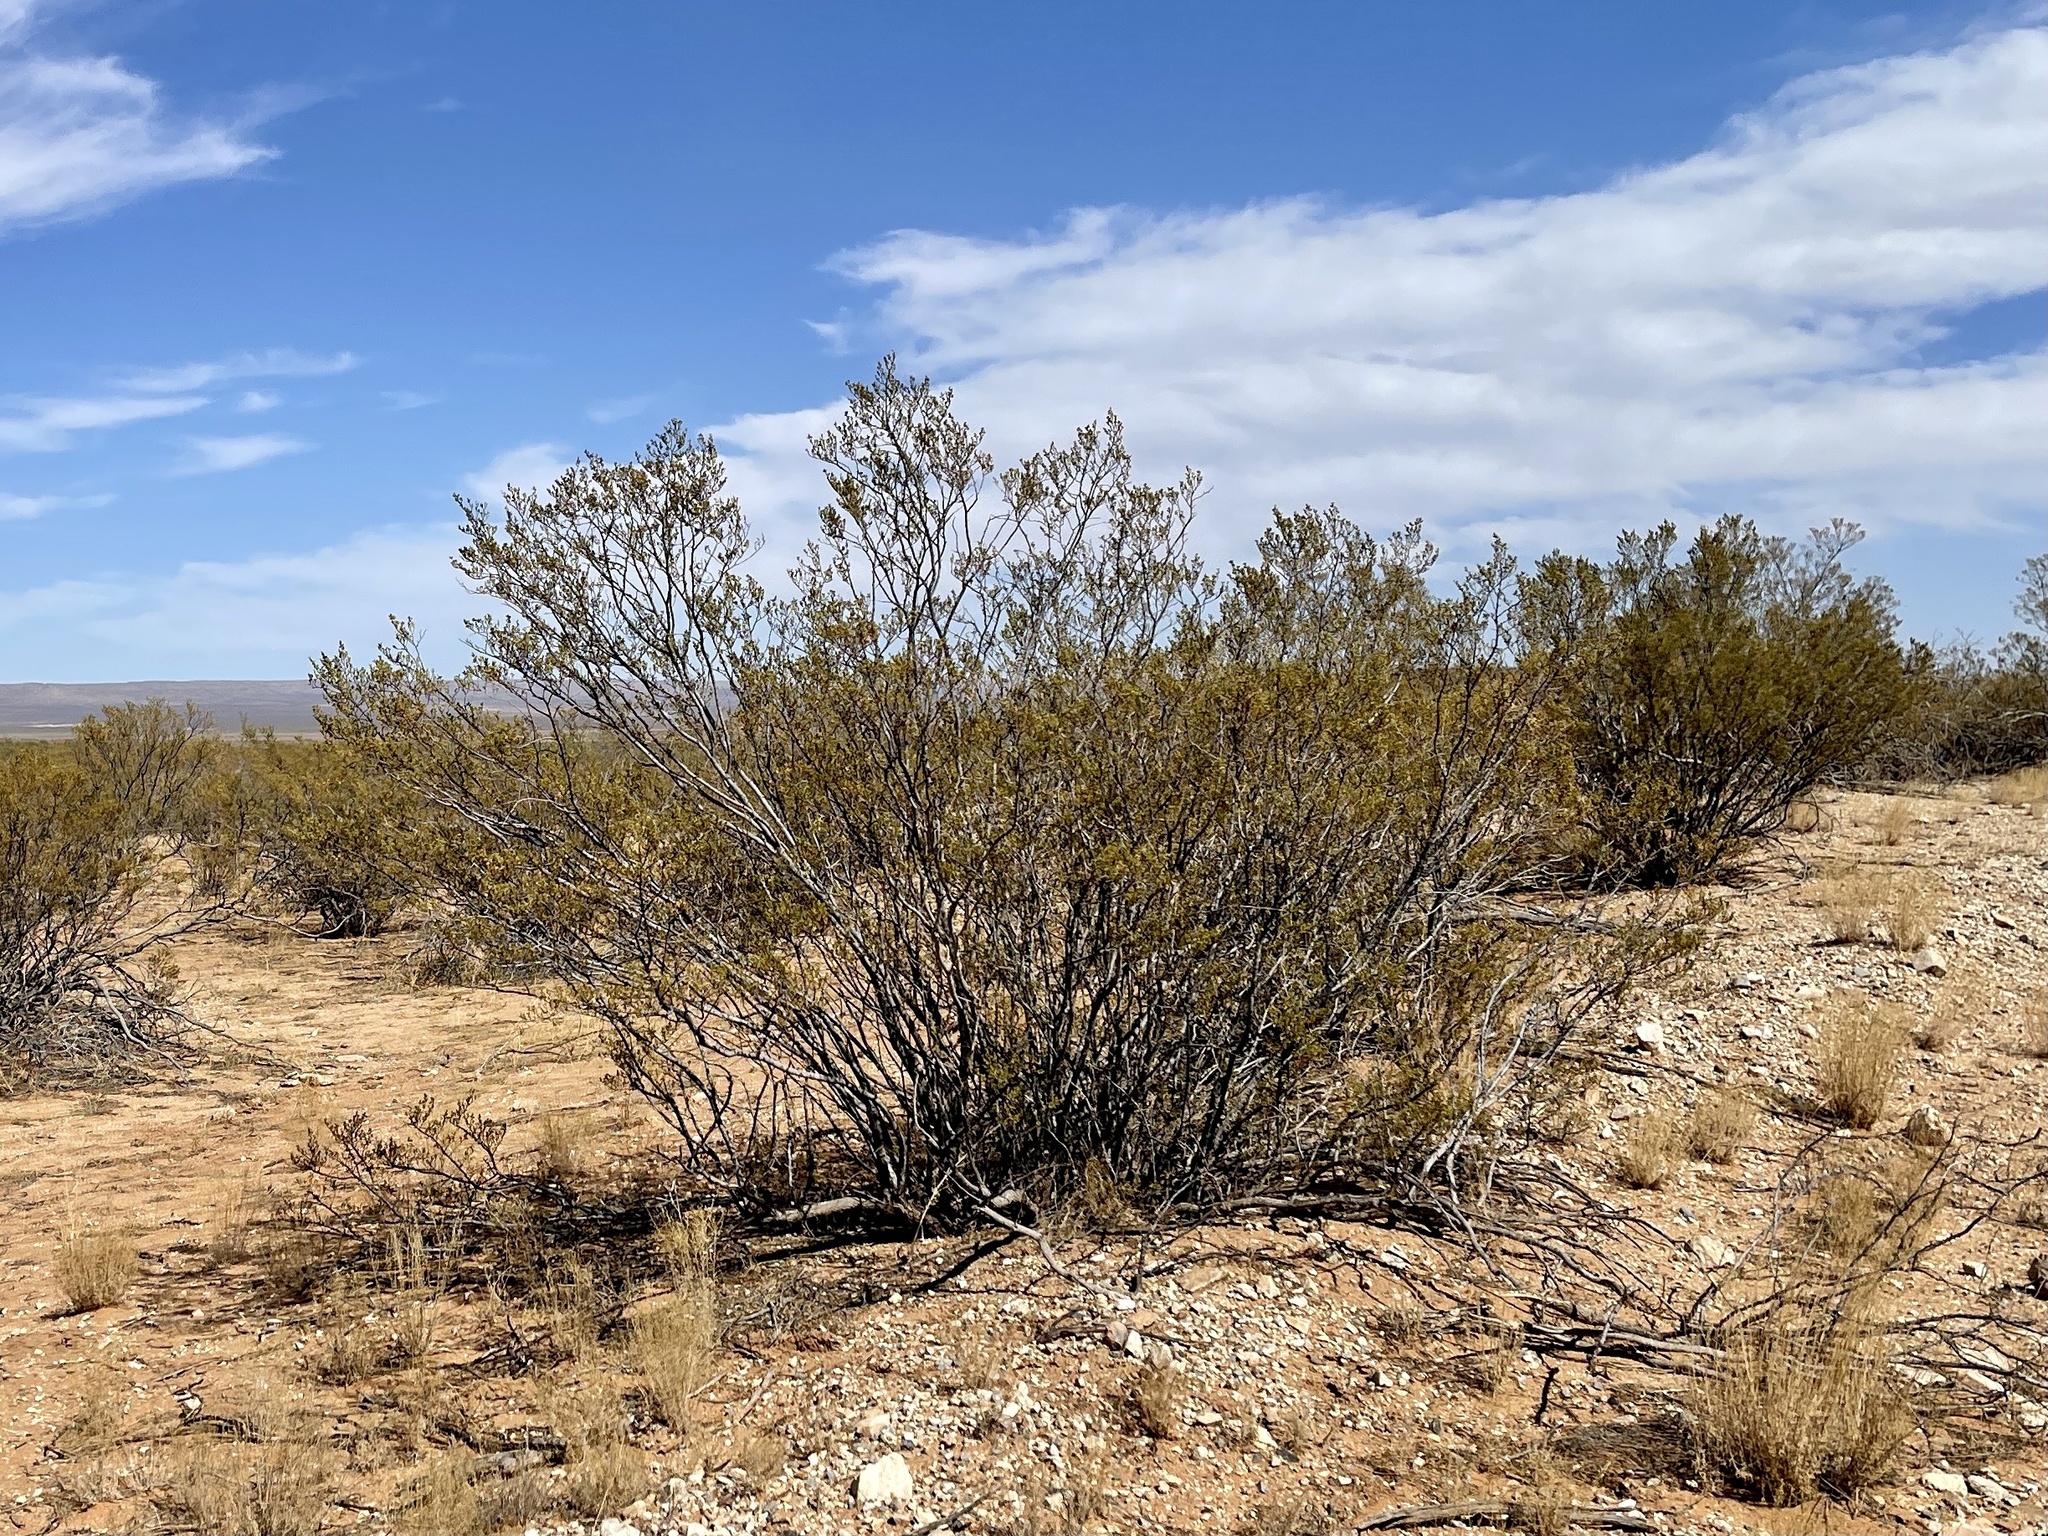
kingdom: Plantae
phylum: Tracheophyta
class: Magnoliopsida
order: Zygophyllales
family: Zygophyllaceae
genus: Larrea
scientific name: Larrea tridentata
